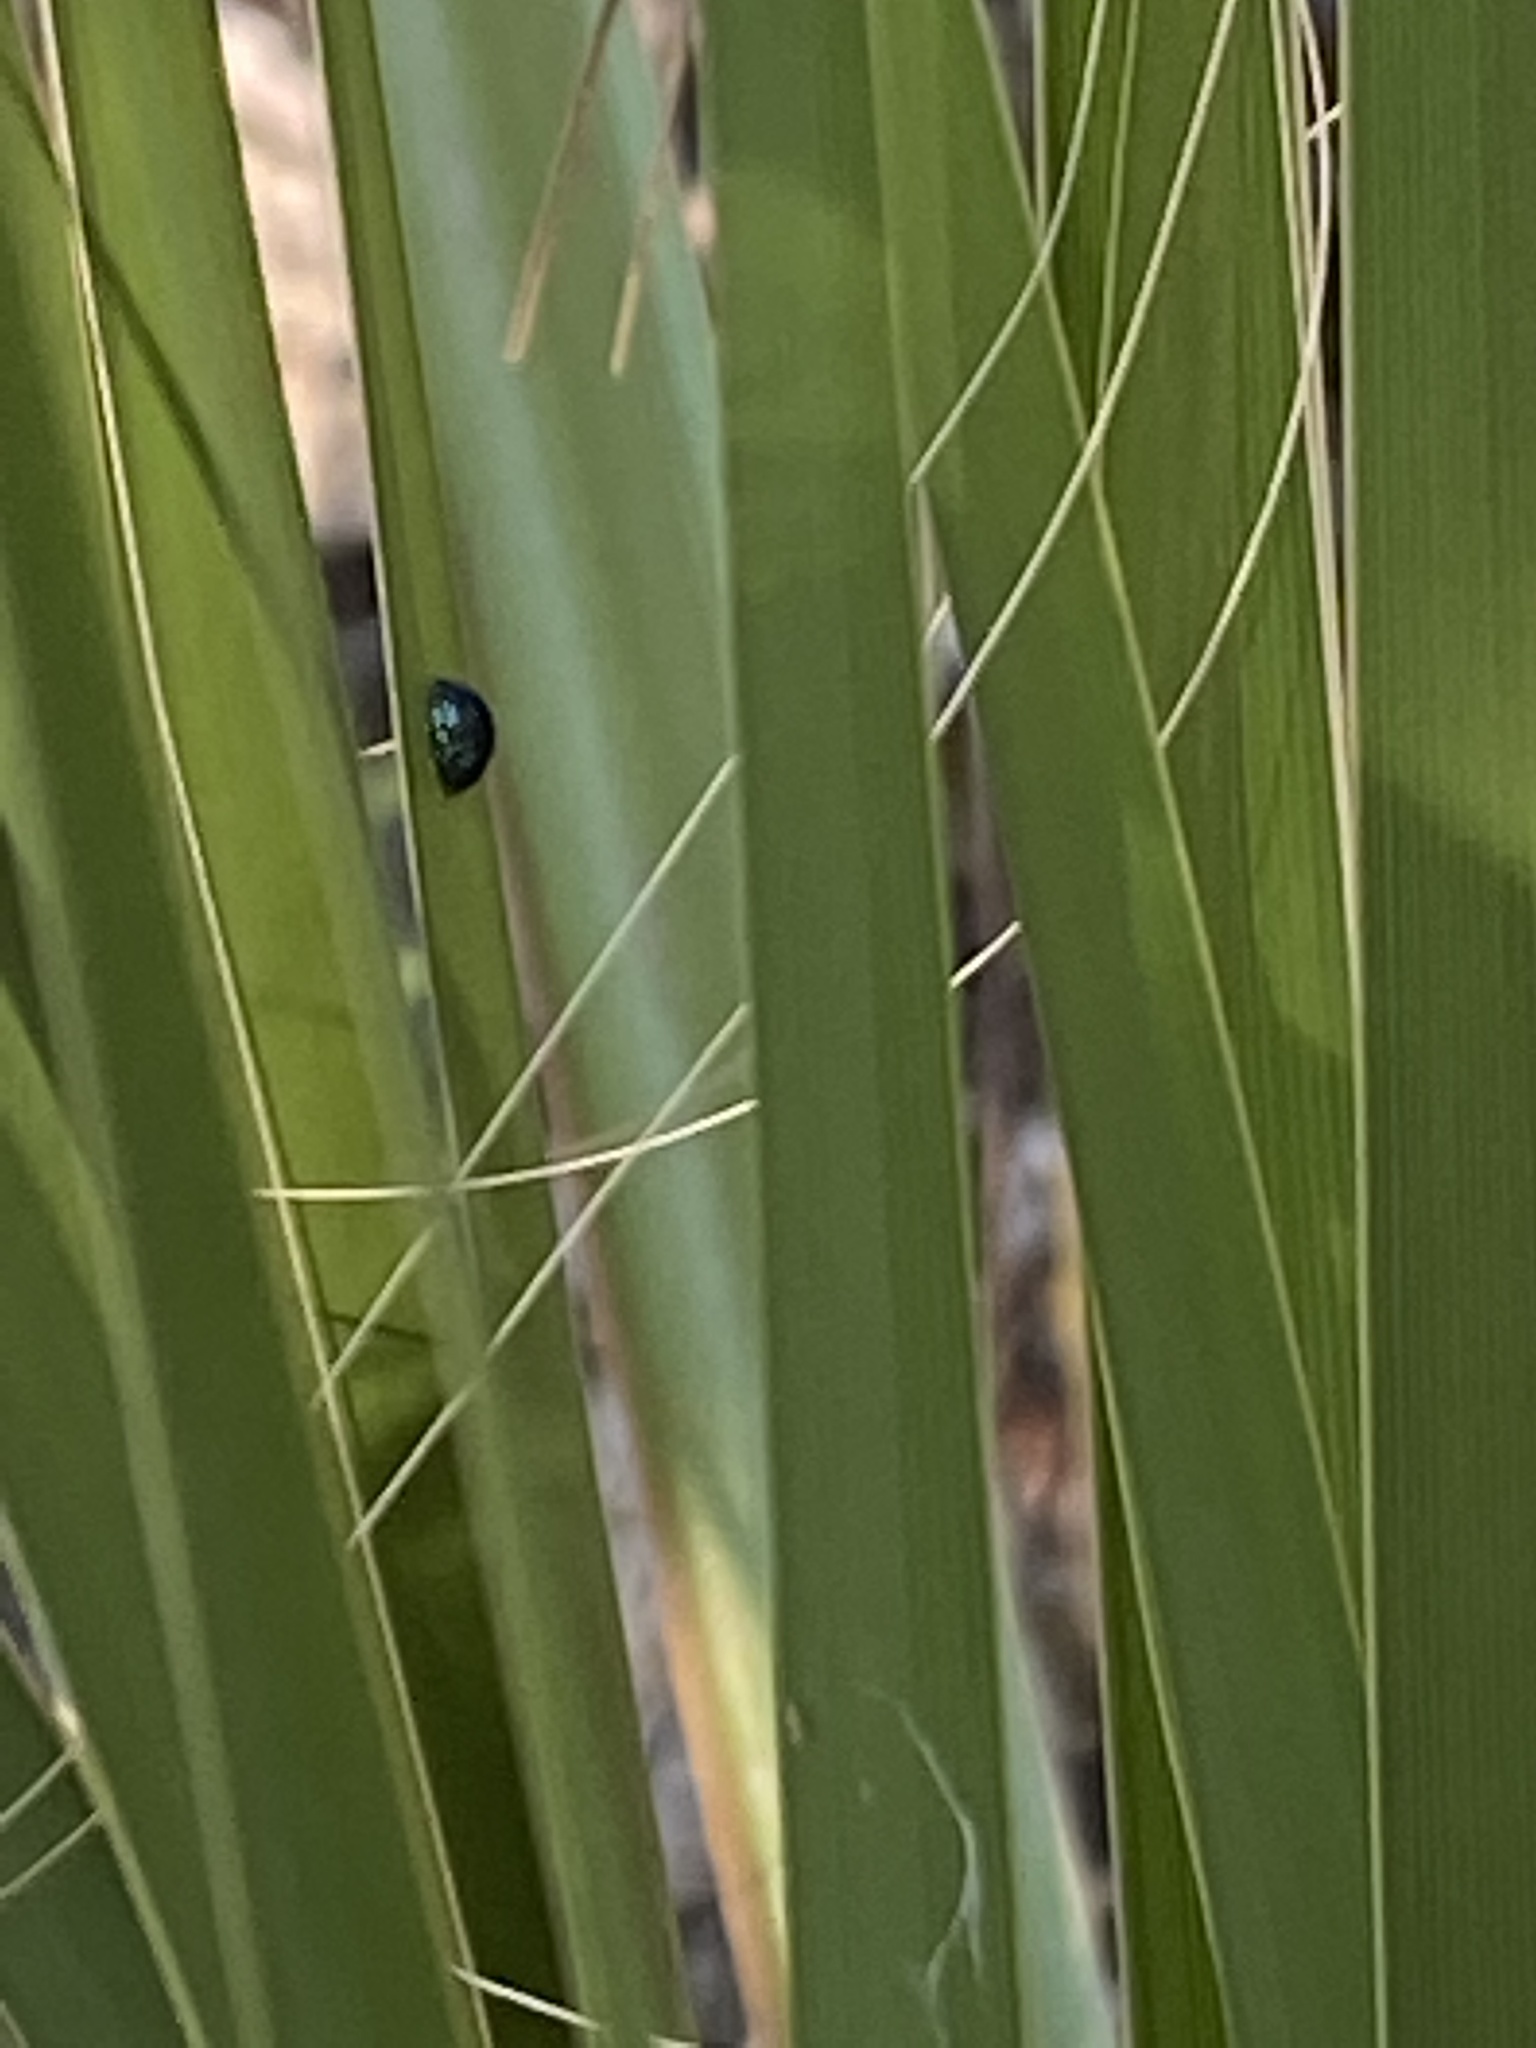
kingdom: Animalia
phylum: Arthropoda
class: Insecta
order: Coleoptera
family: Chrysomelidae
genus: Hemisphaerota
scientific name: Hemisphaerota cyanea
